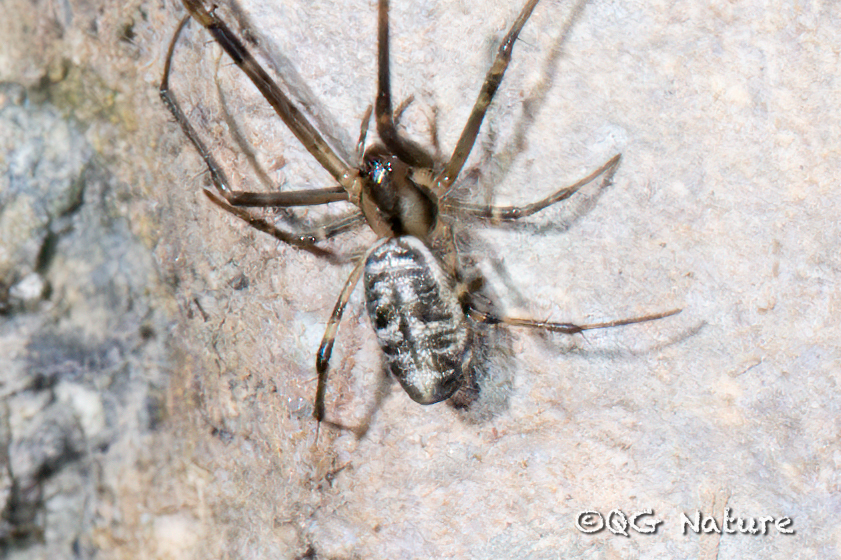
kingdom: Animalia
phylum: Arthropoda
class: Arachnida
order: Araneae
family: Tetragnathidae
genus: Tylorida
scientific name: Tylorida ventralis
